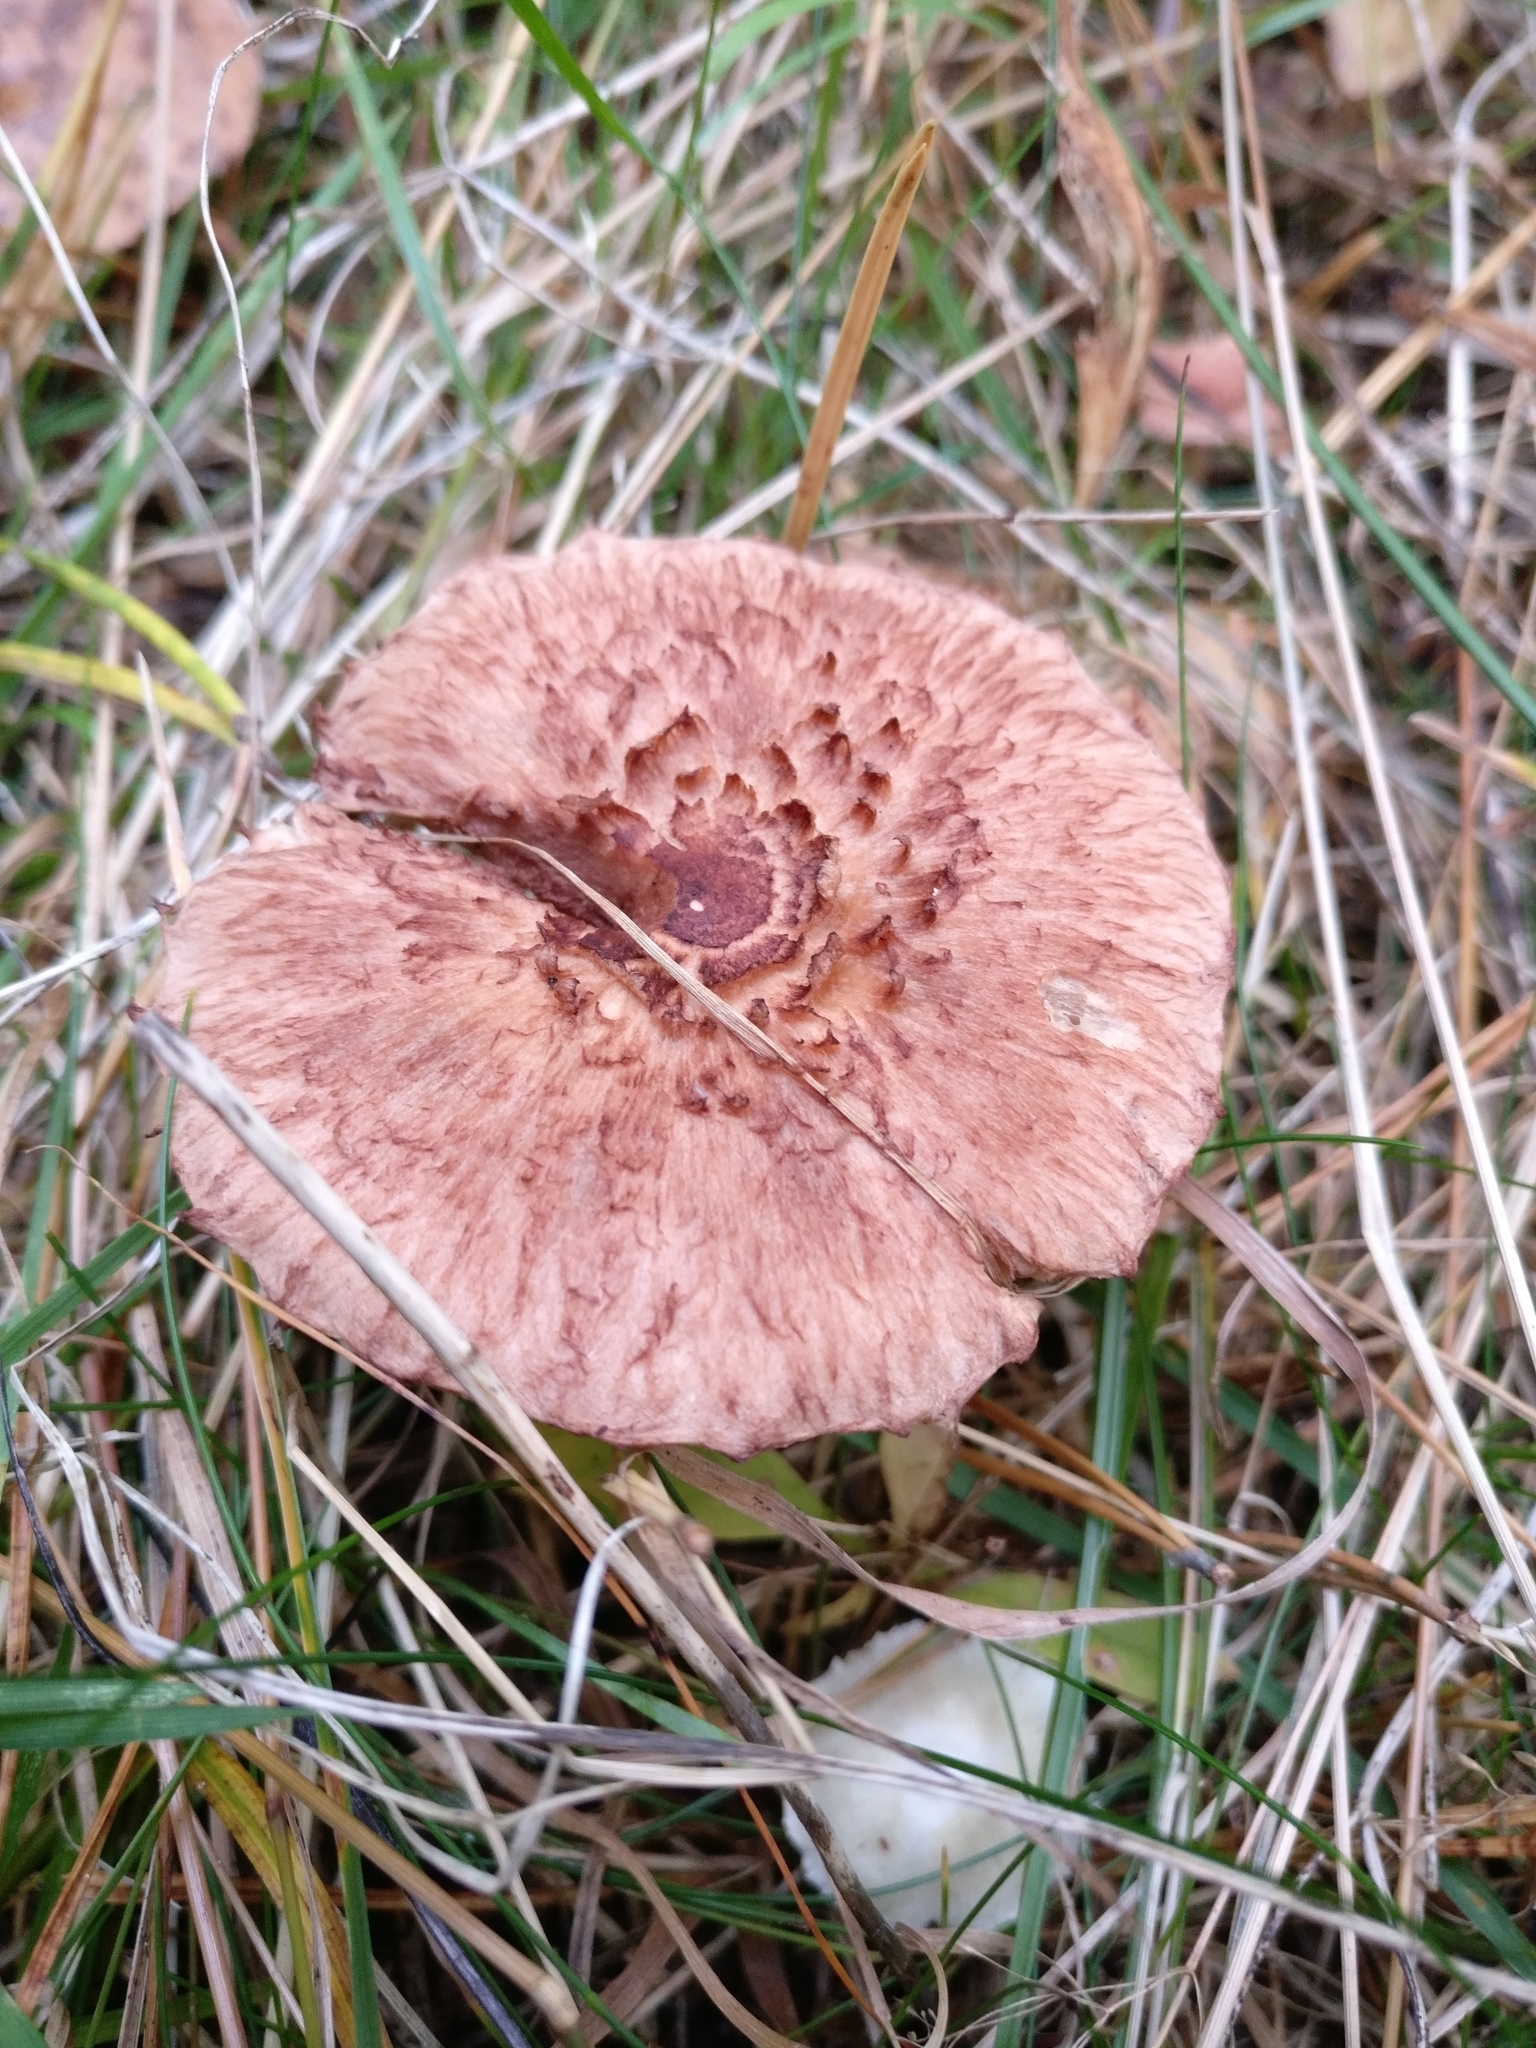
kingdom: Fungi
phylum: Basidiomycota
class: Agaricomycetes
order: Agaricales
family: Tricholomataceae
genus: Tricholoma
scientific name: Tricholoma vaccinum
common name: Scaly knight
